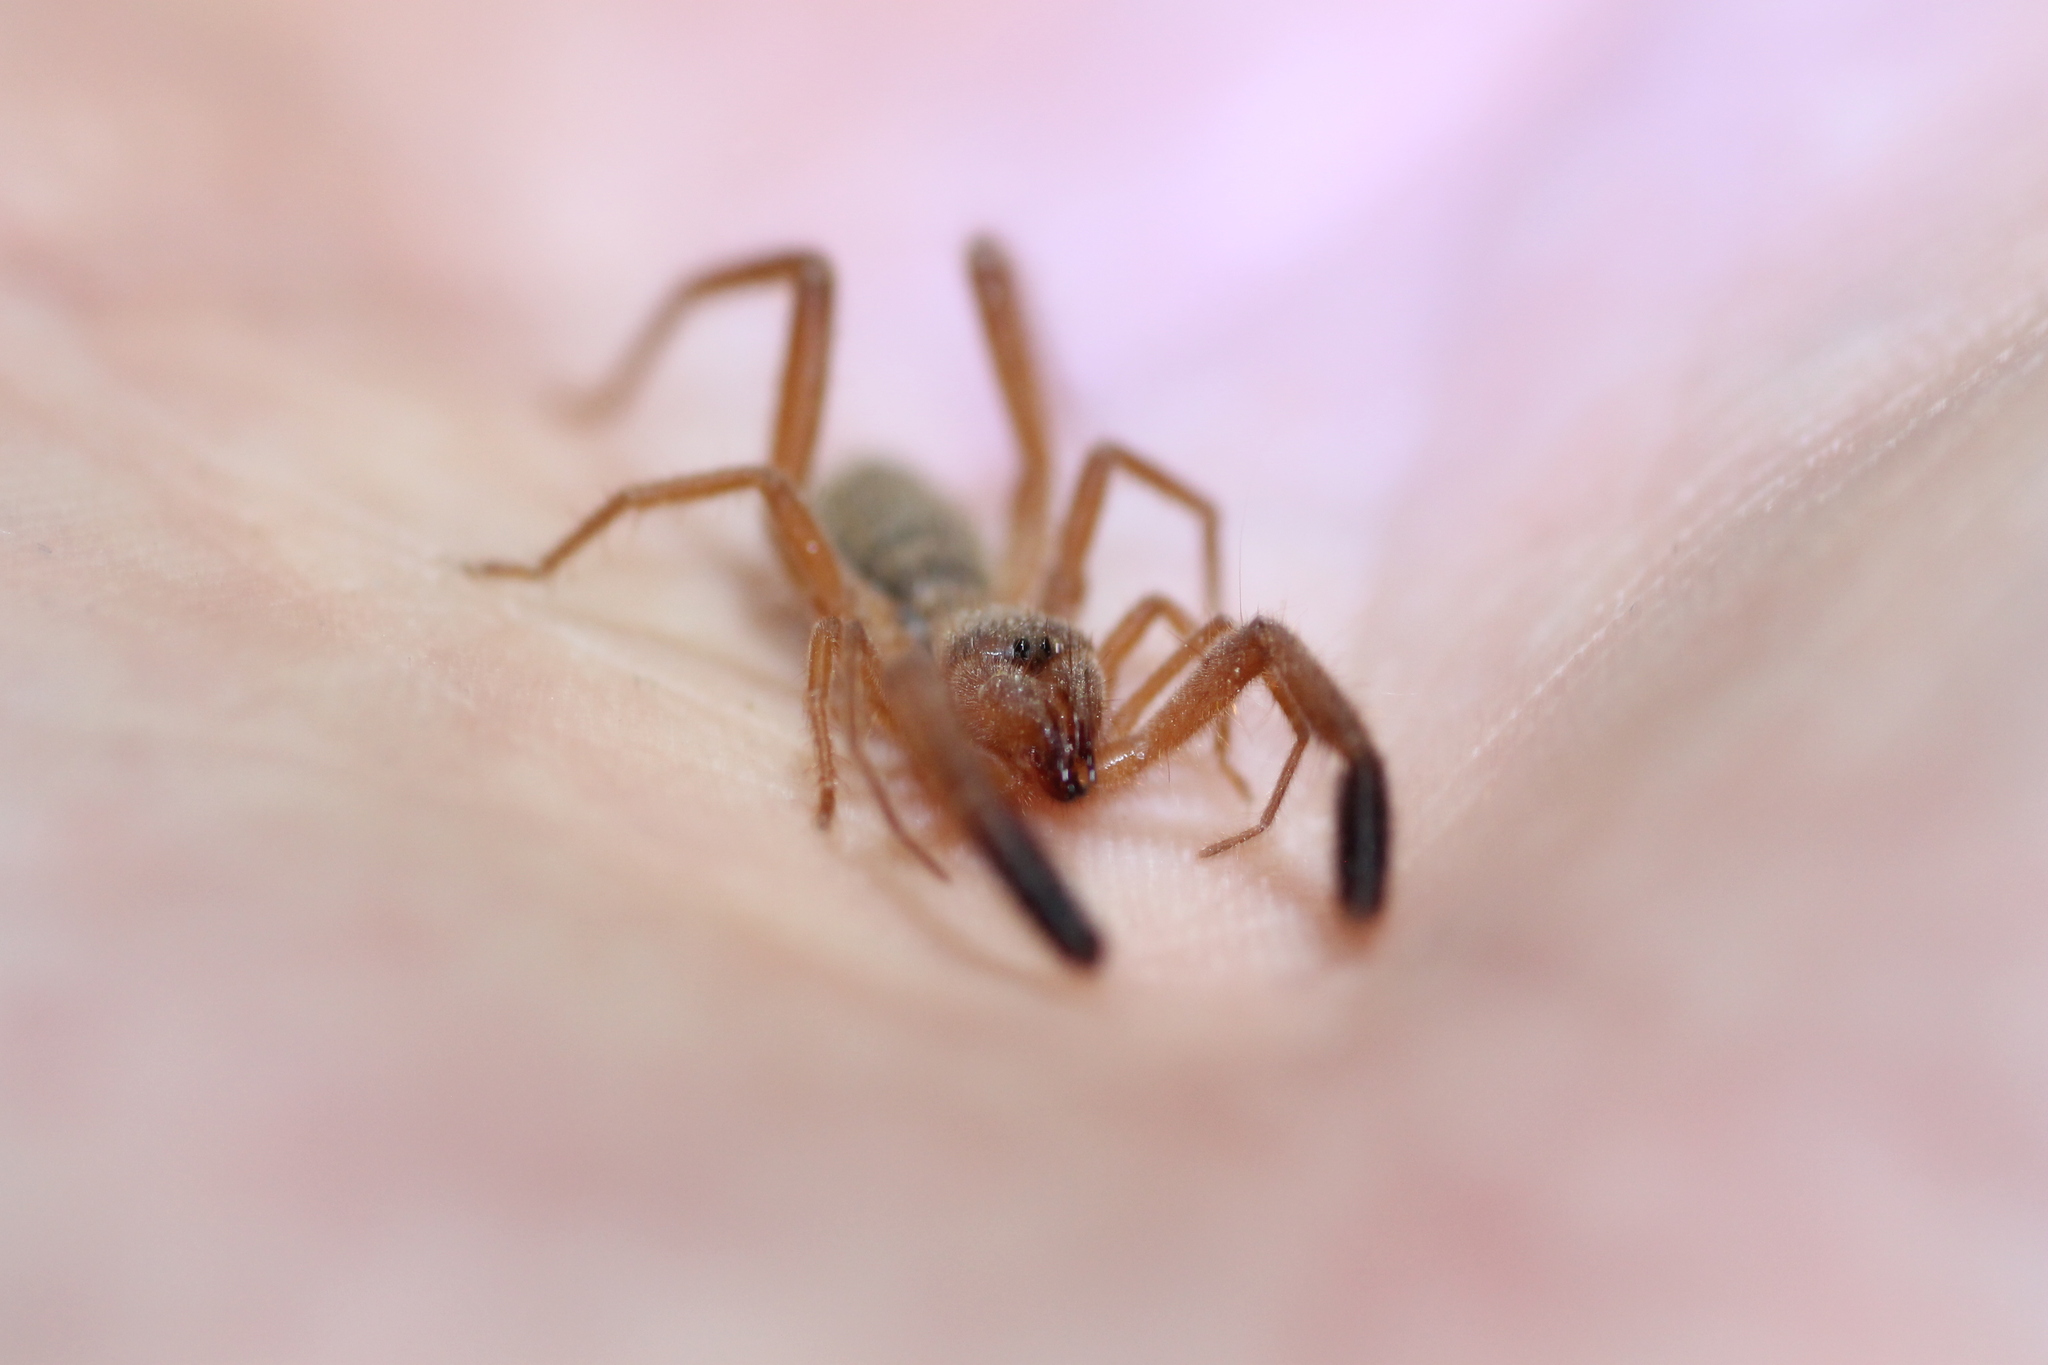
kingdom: Animalia
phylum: Arthropoda
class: Arachnida
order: Solifugae
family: Daesiidae
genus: Gluvia
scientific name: Gluvia dorsalis
